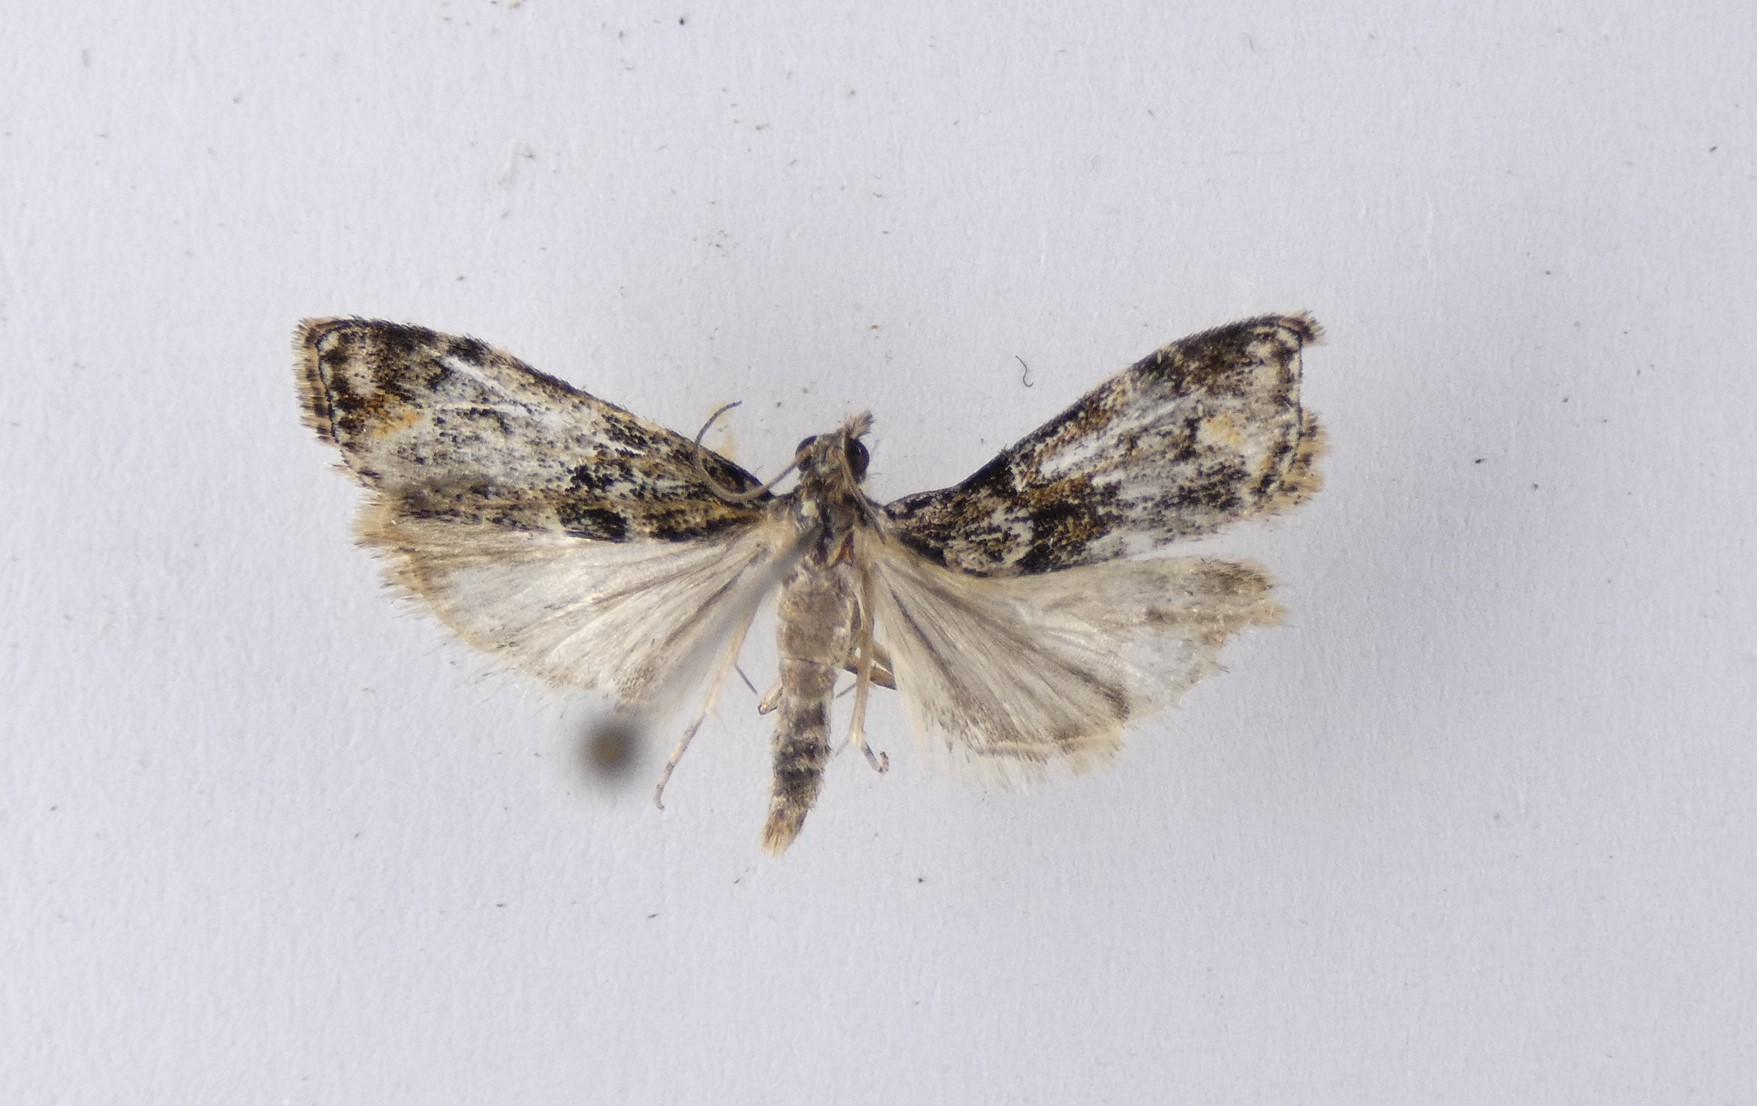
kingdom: Animalia
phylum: Arthropoda
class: Insecta
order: Lepidoptera
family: Crambidae
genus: Eudonia
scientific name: Eudonia minualis
